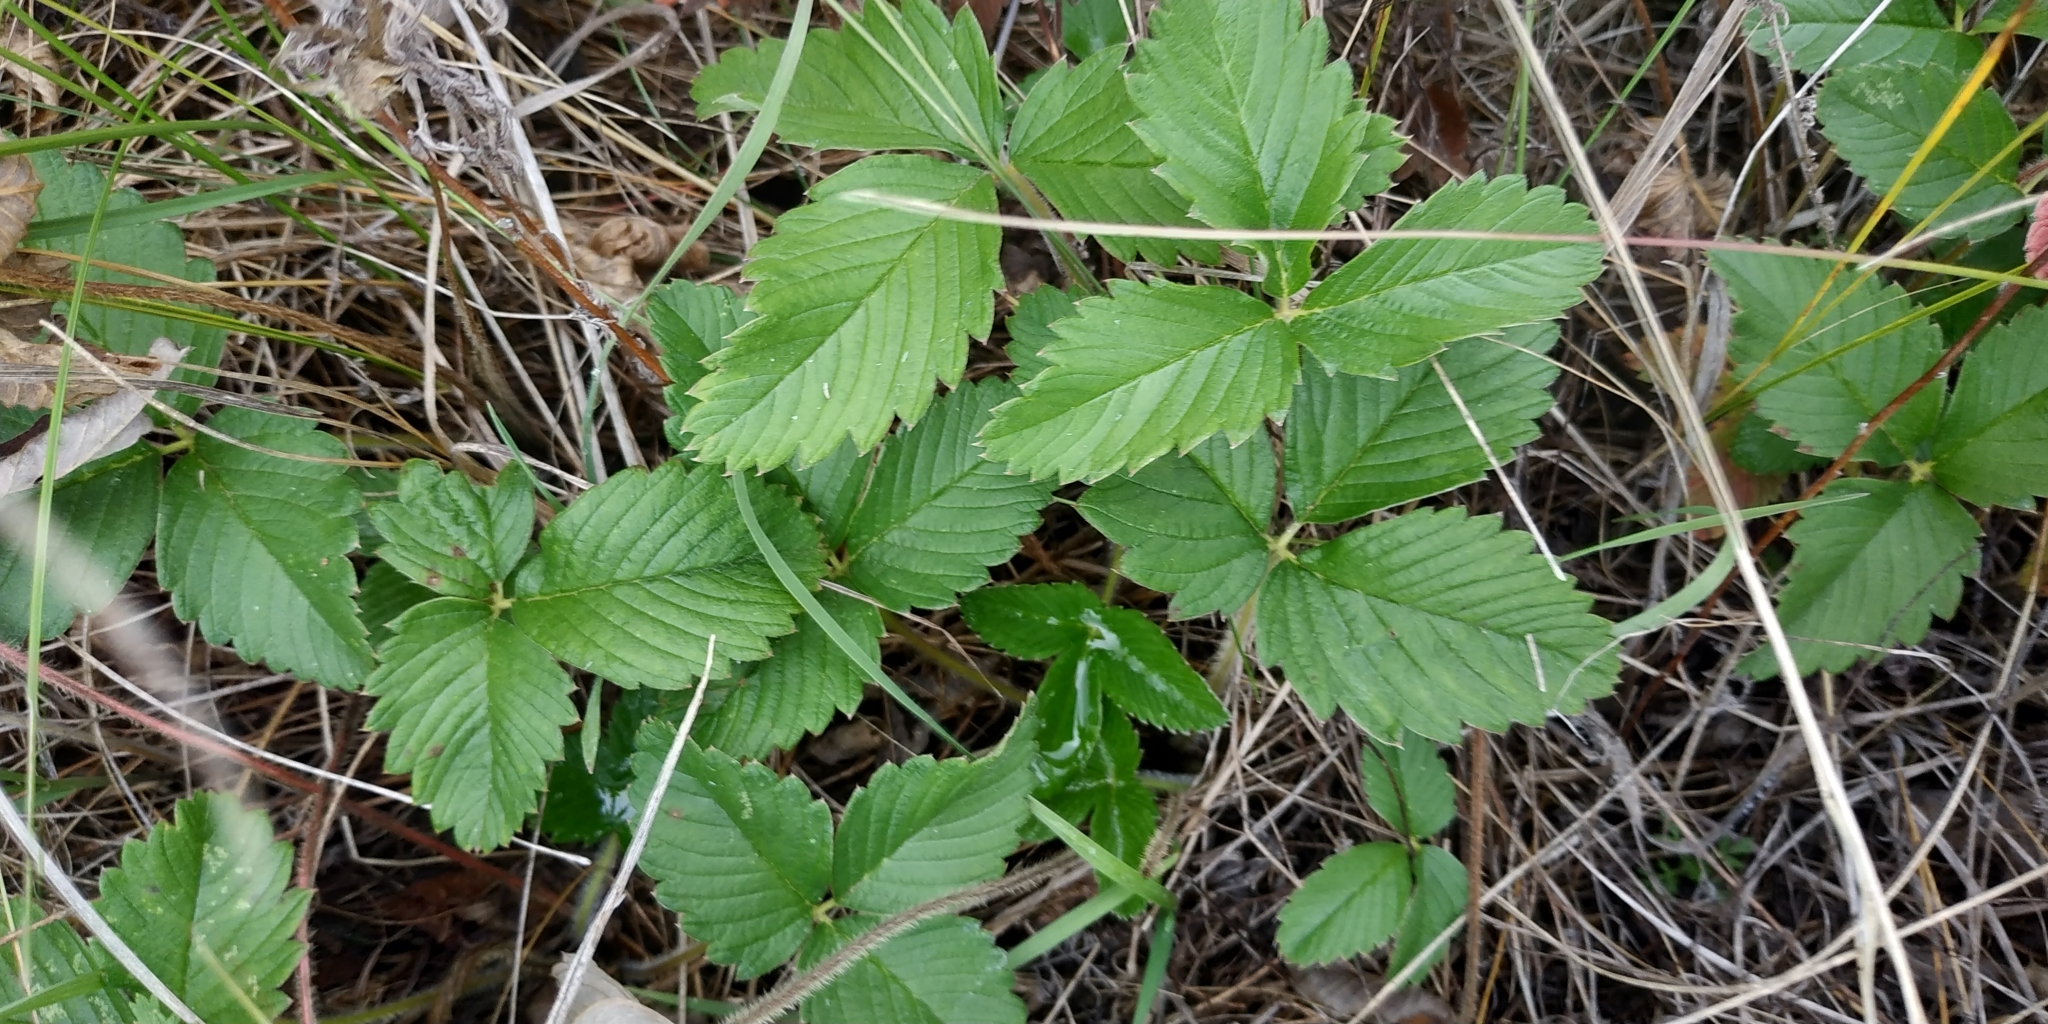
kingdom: Plantae
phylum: Tracheophyta
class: Magnoliopsida
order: Rosales
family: Rosaceae
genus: Fragaria
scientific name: Fragaria viridis
